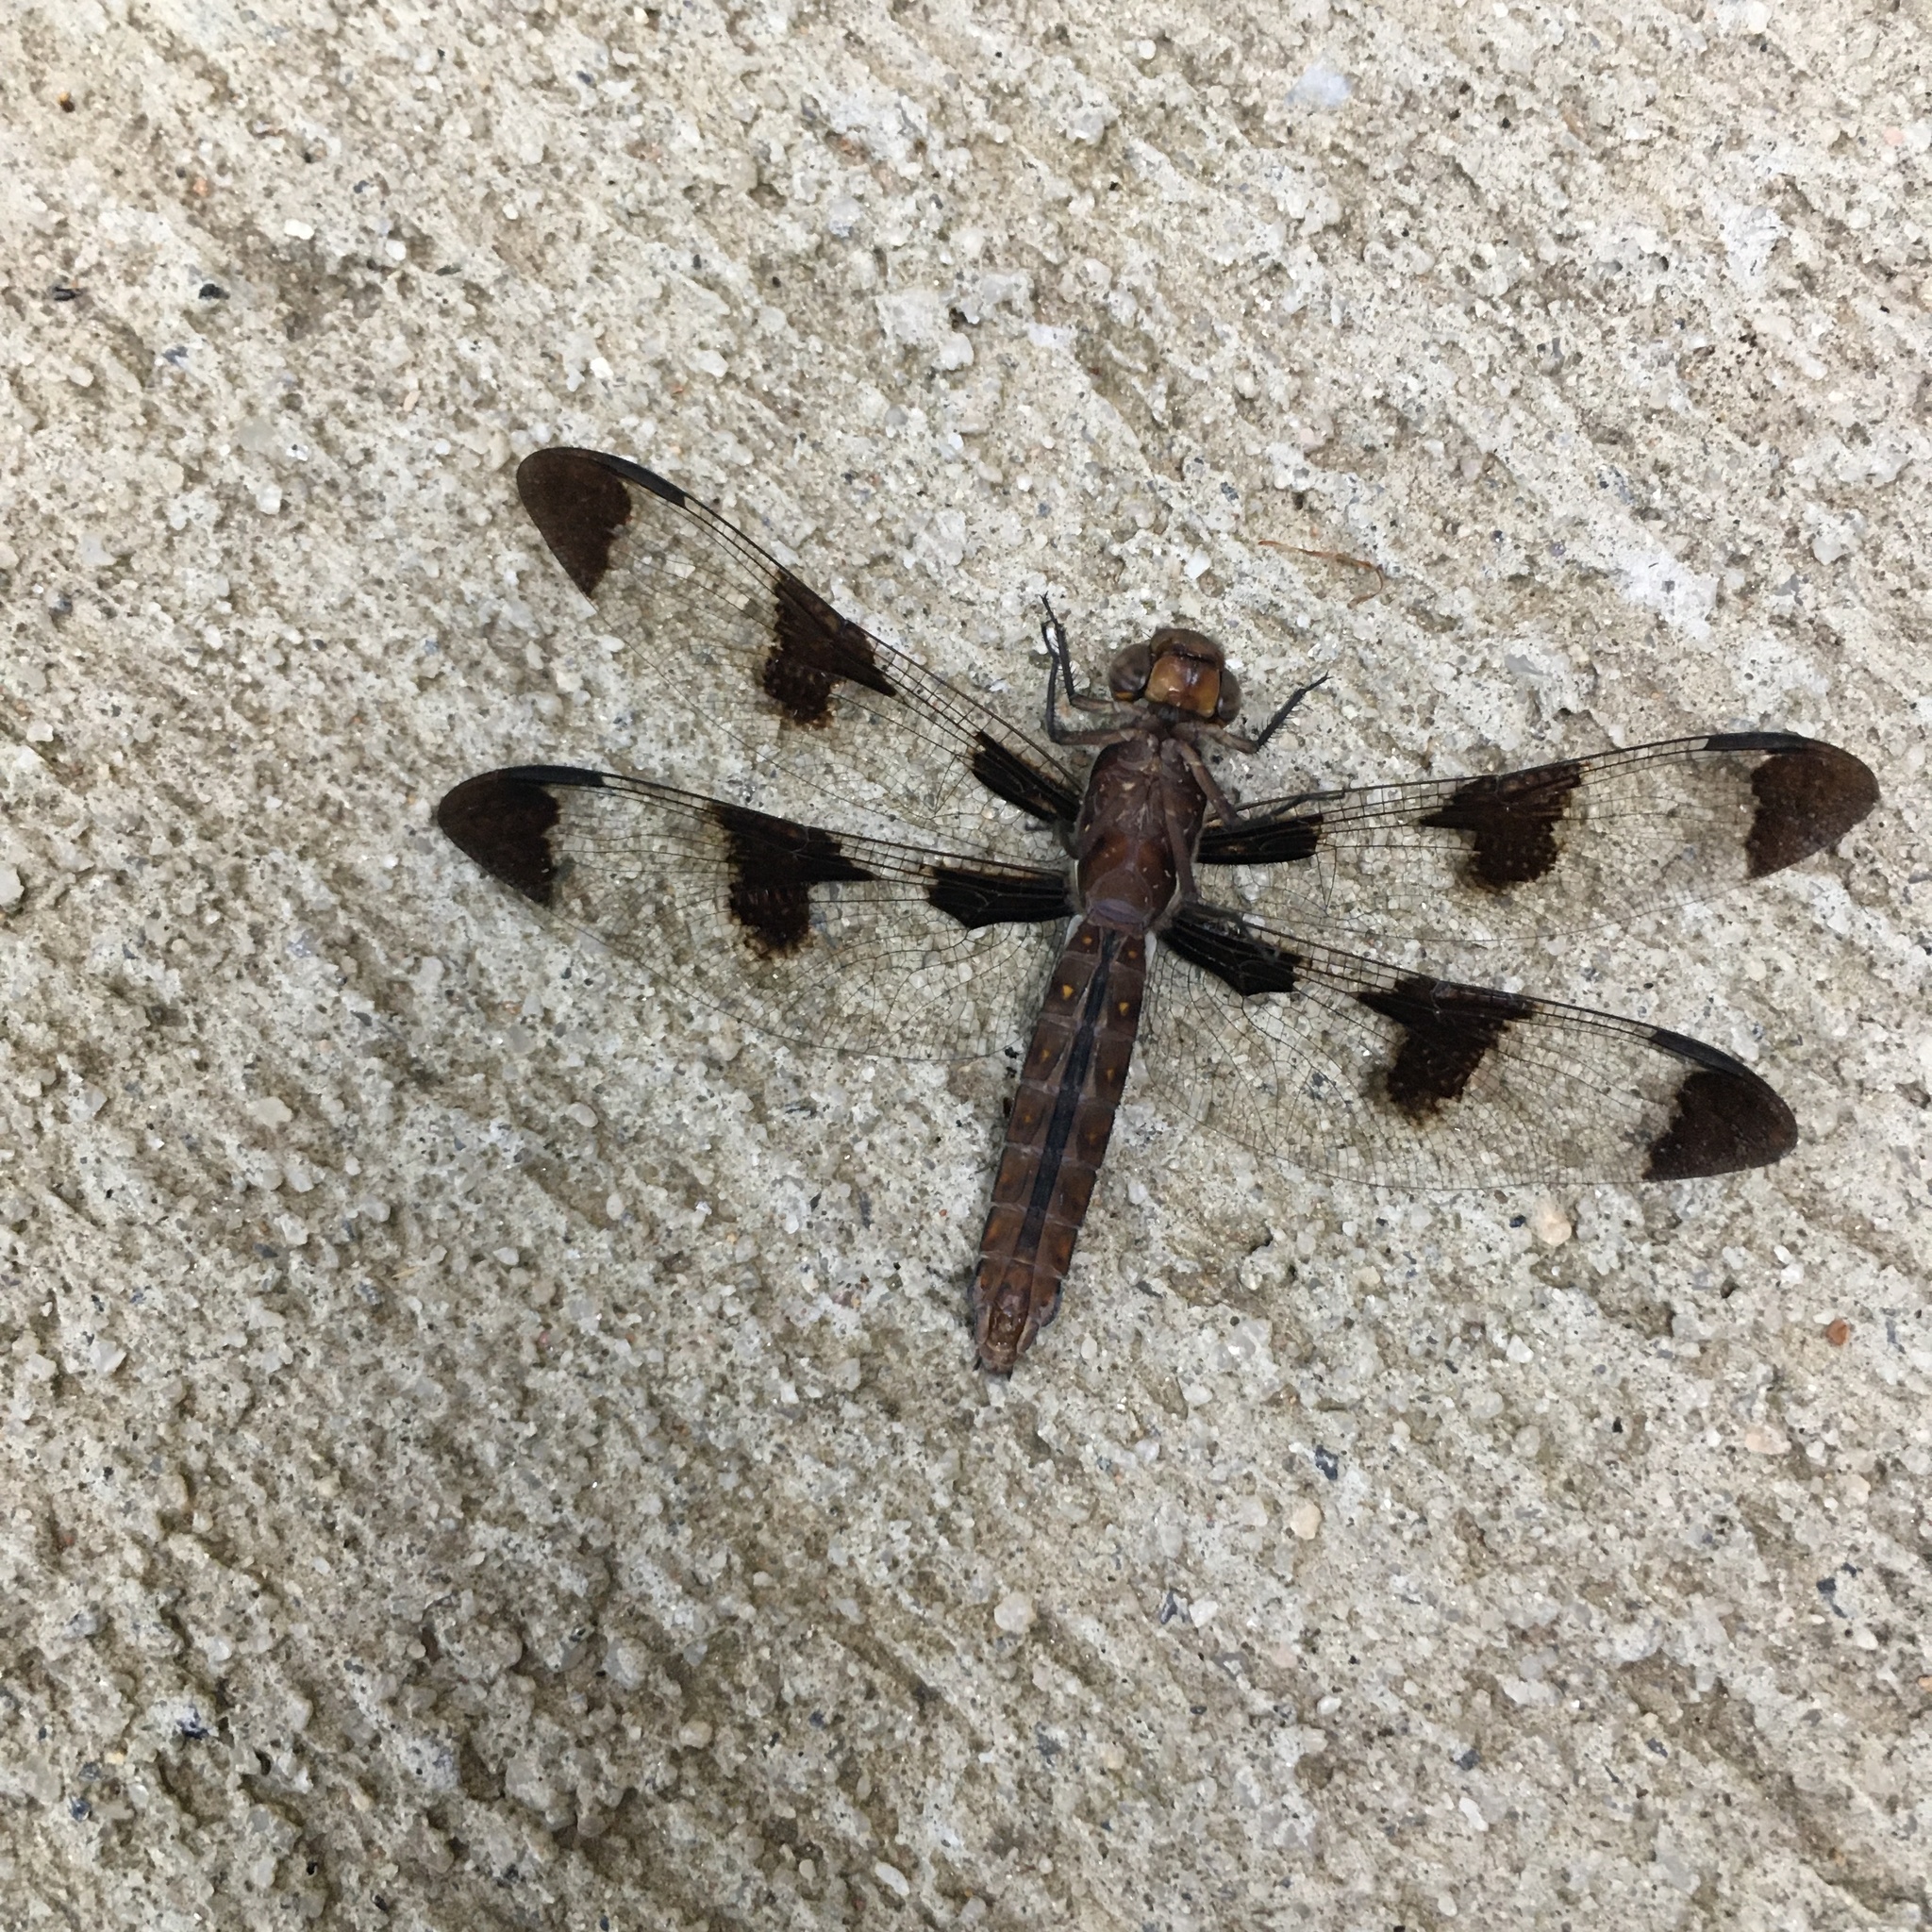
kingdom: Animalia
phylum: Arthropoda
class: Insecta
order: Odonata
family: Libellulidae
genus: Plathemis
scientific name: Plathemis lydia
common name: Common whitetail
